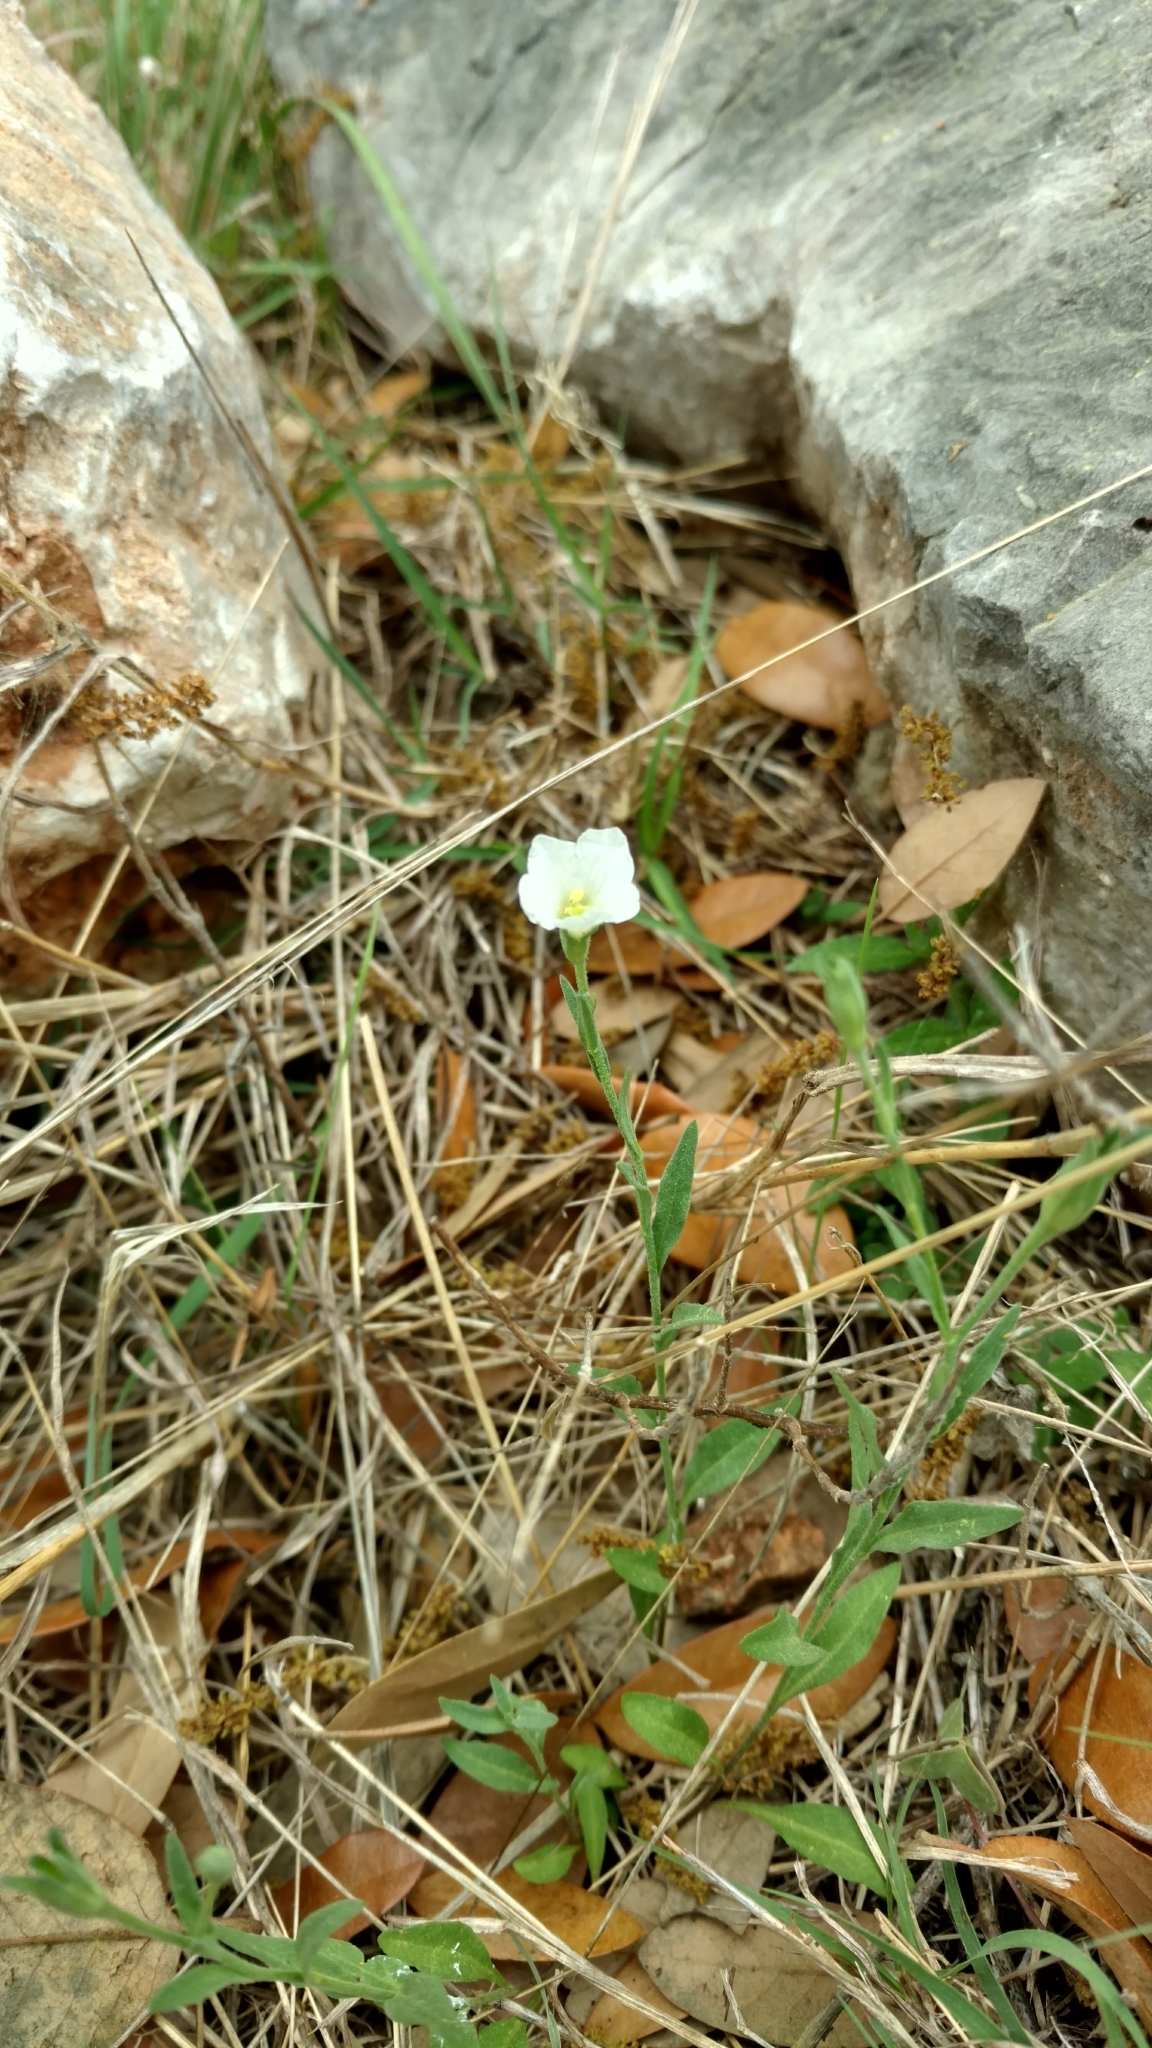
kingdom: Plantae
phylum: Tracheophyta
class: Magnoliopsida
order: Solanales
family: Solanaceae
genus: Salpiglossis
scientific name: Salpiglossis erecta
